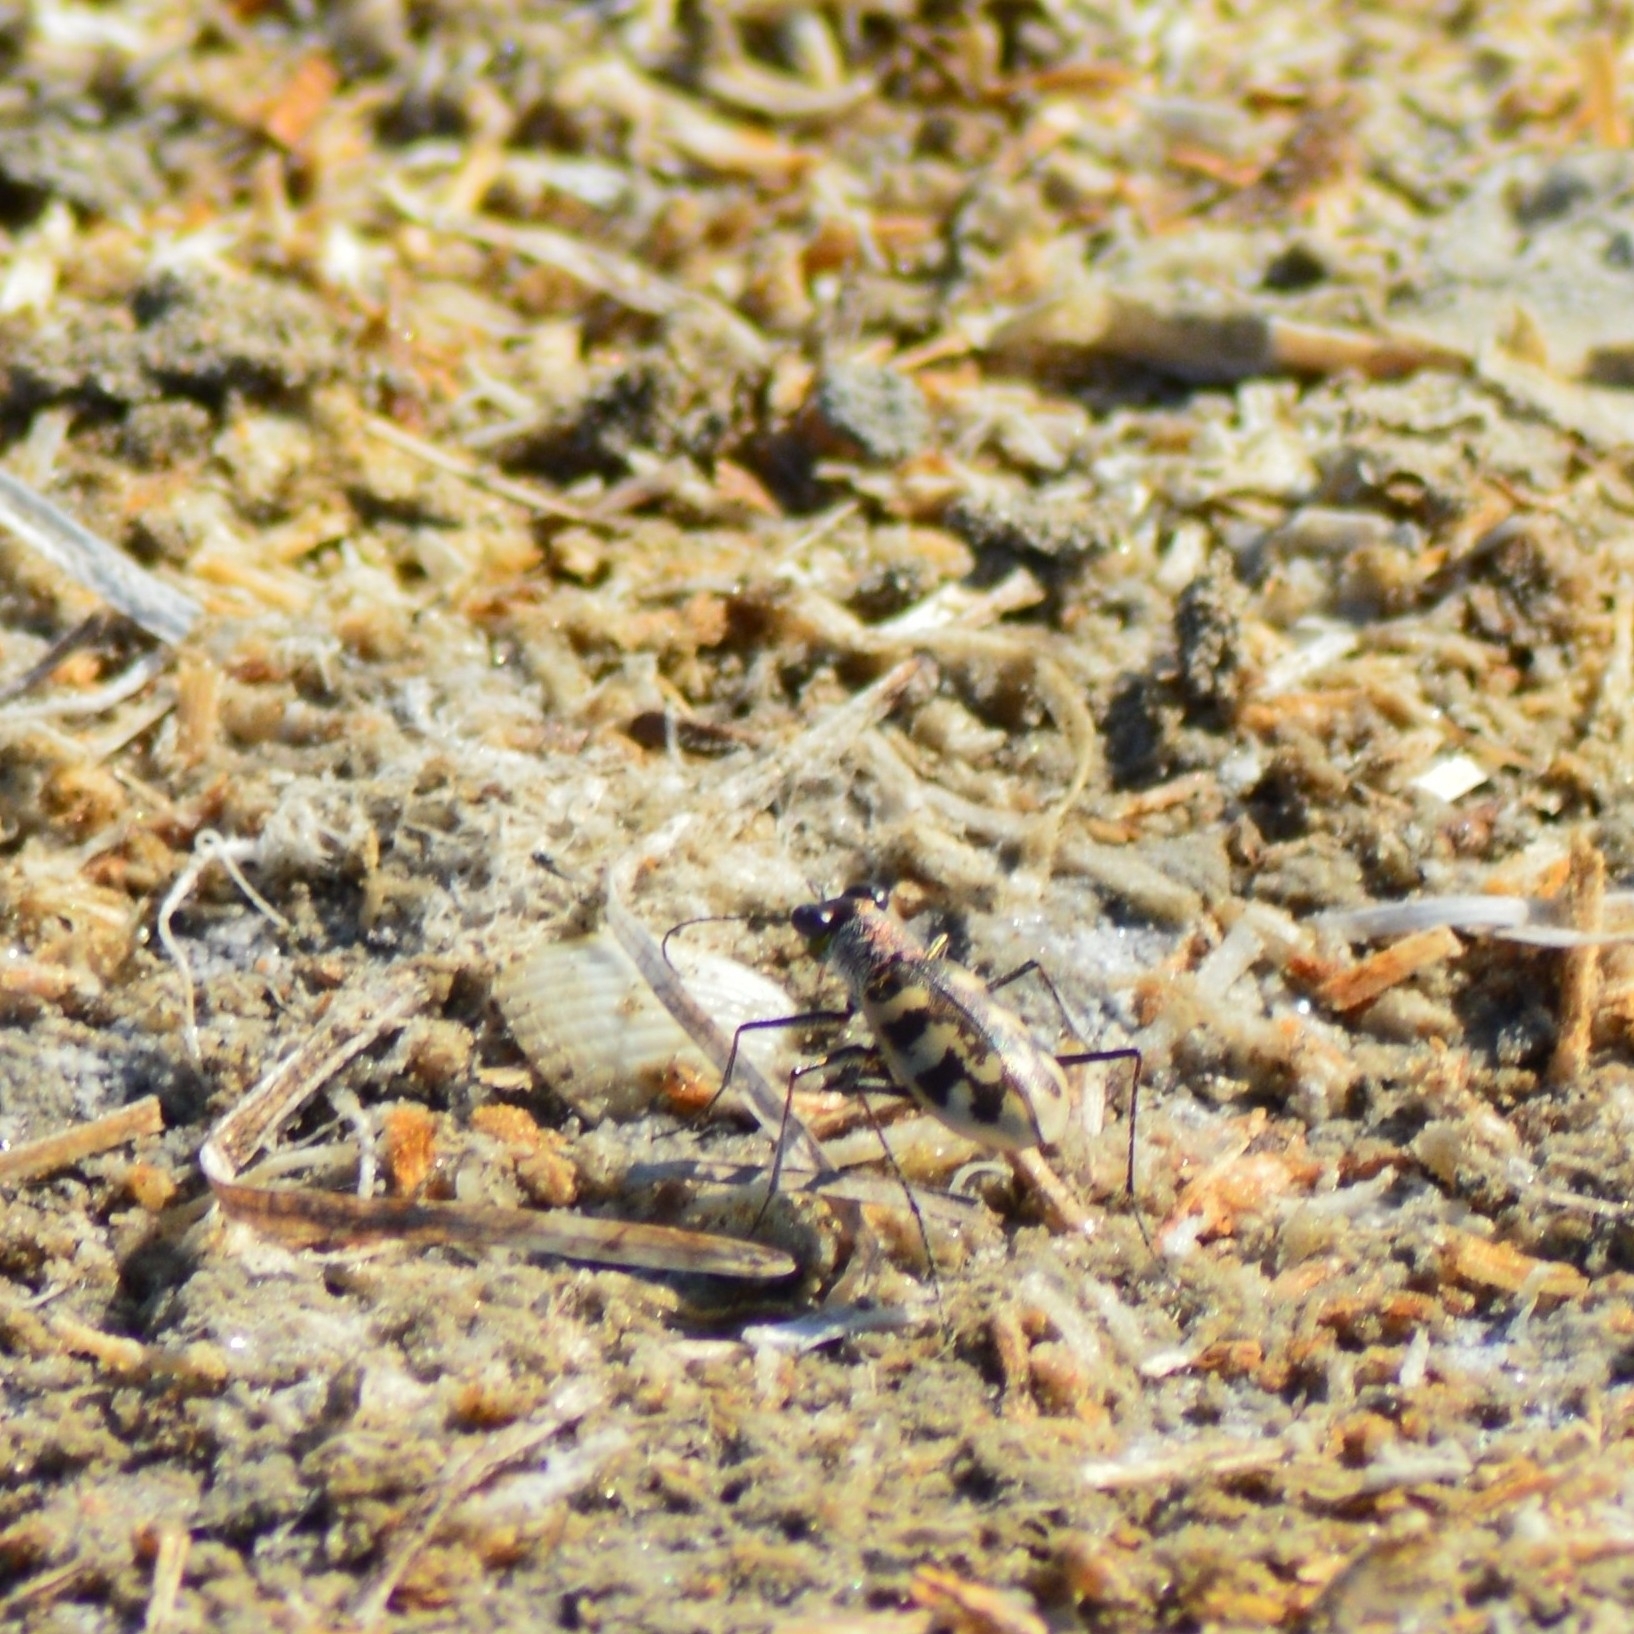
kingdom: Animalia
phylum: Arthropoda
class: Insecta
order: Coleoptera
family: Carabidae
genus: Cephalota
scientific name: Cephalota circumdata
